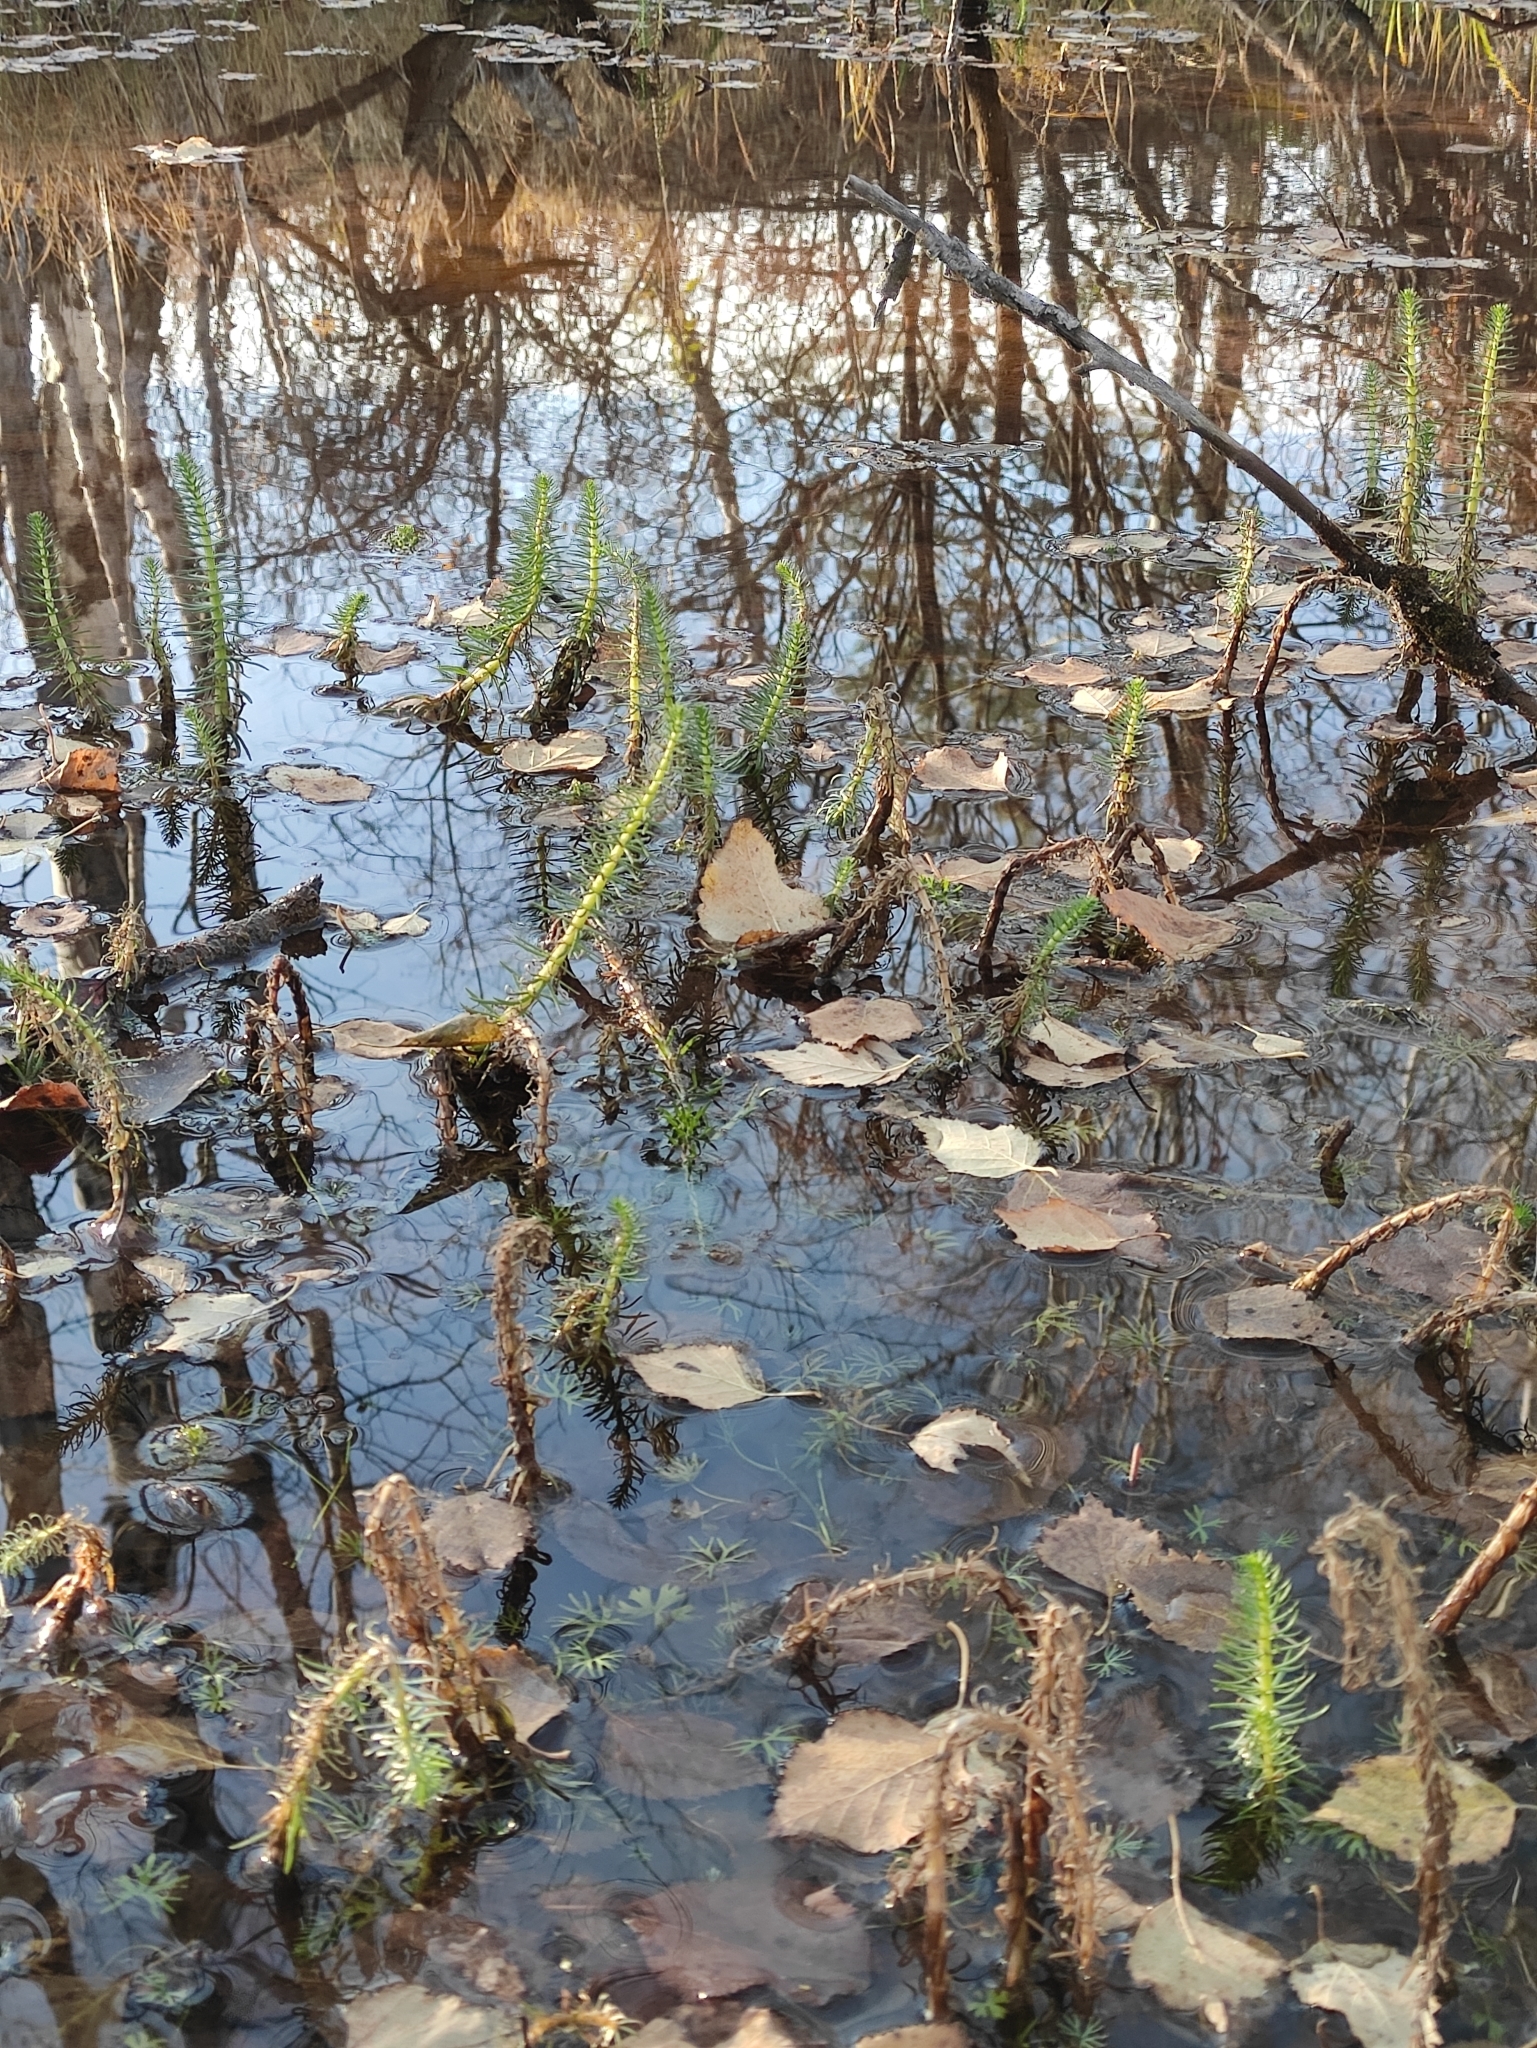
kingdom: Plantae
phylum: Tracheophyta
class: Magnoliopsida
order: Lamiales
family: Plantaginaceae
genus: Hippuris
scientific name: Hippuris vulgaris
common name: Mare's-tail
